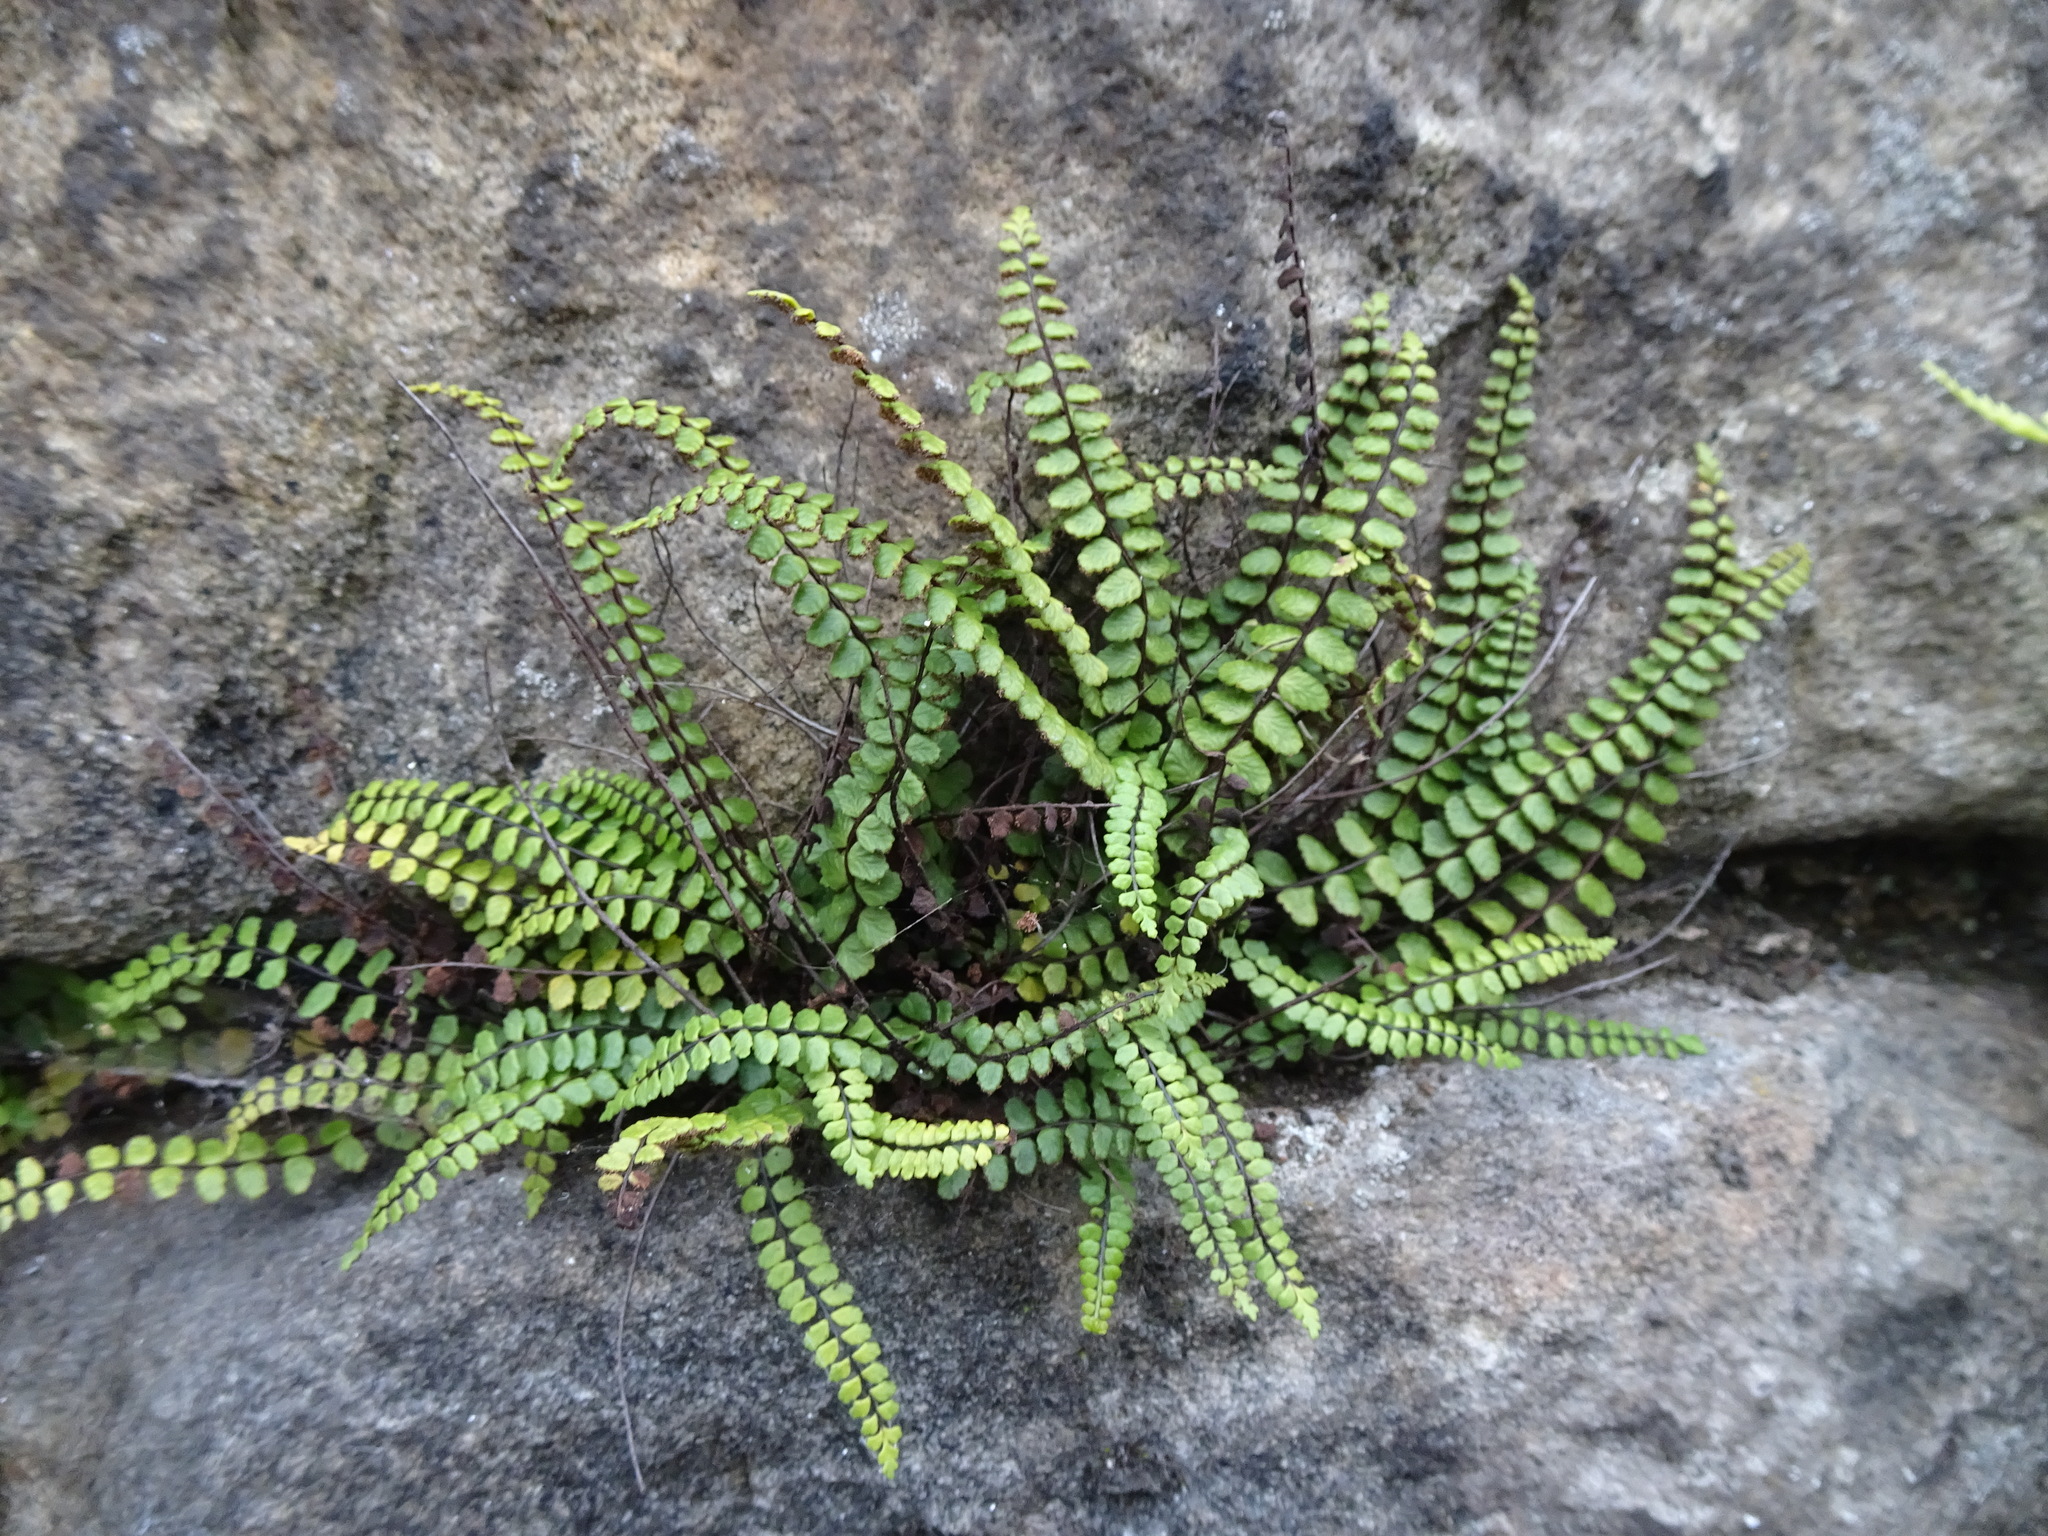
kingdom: Plantae
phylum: Tracheophyta
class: Polypodiopsida
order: Polypodiales
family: Aspleniaceae
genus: Asplenium
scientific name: Asplenium trichomanes
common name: Maidenhair spleenwort
